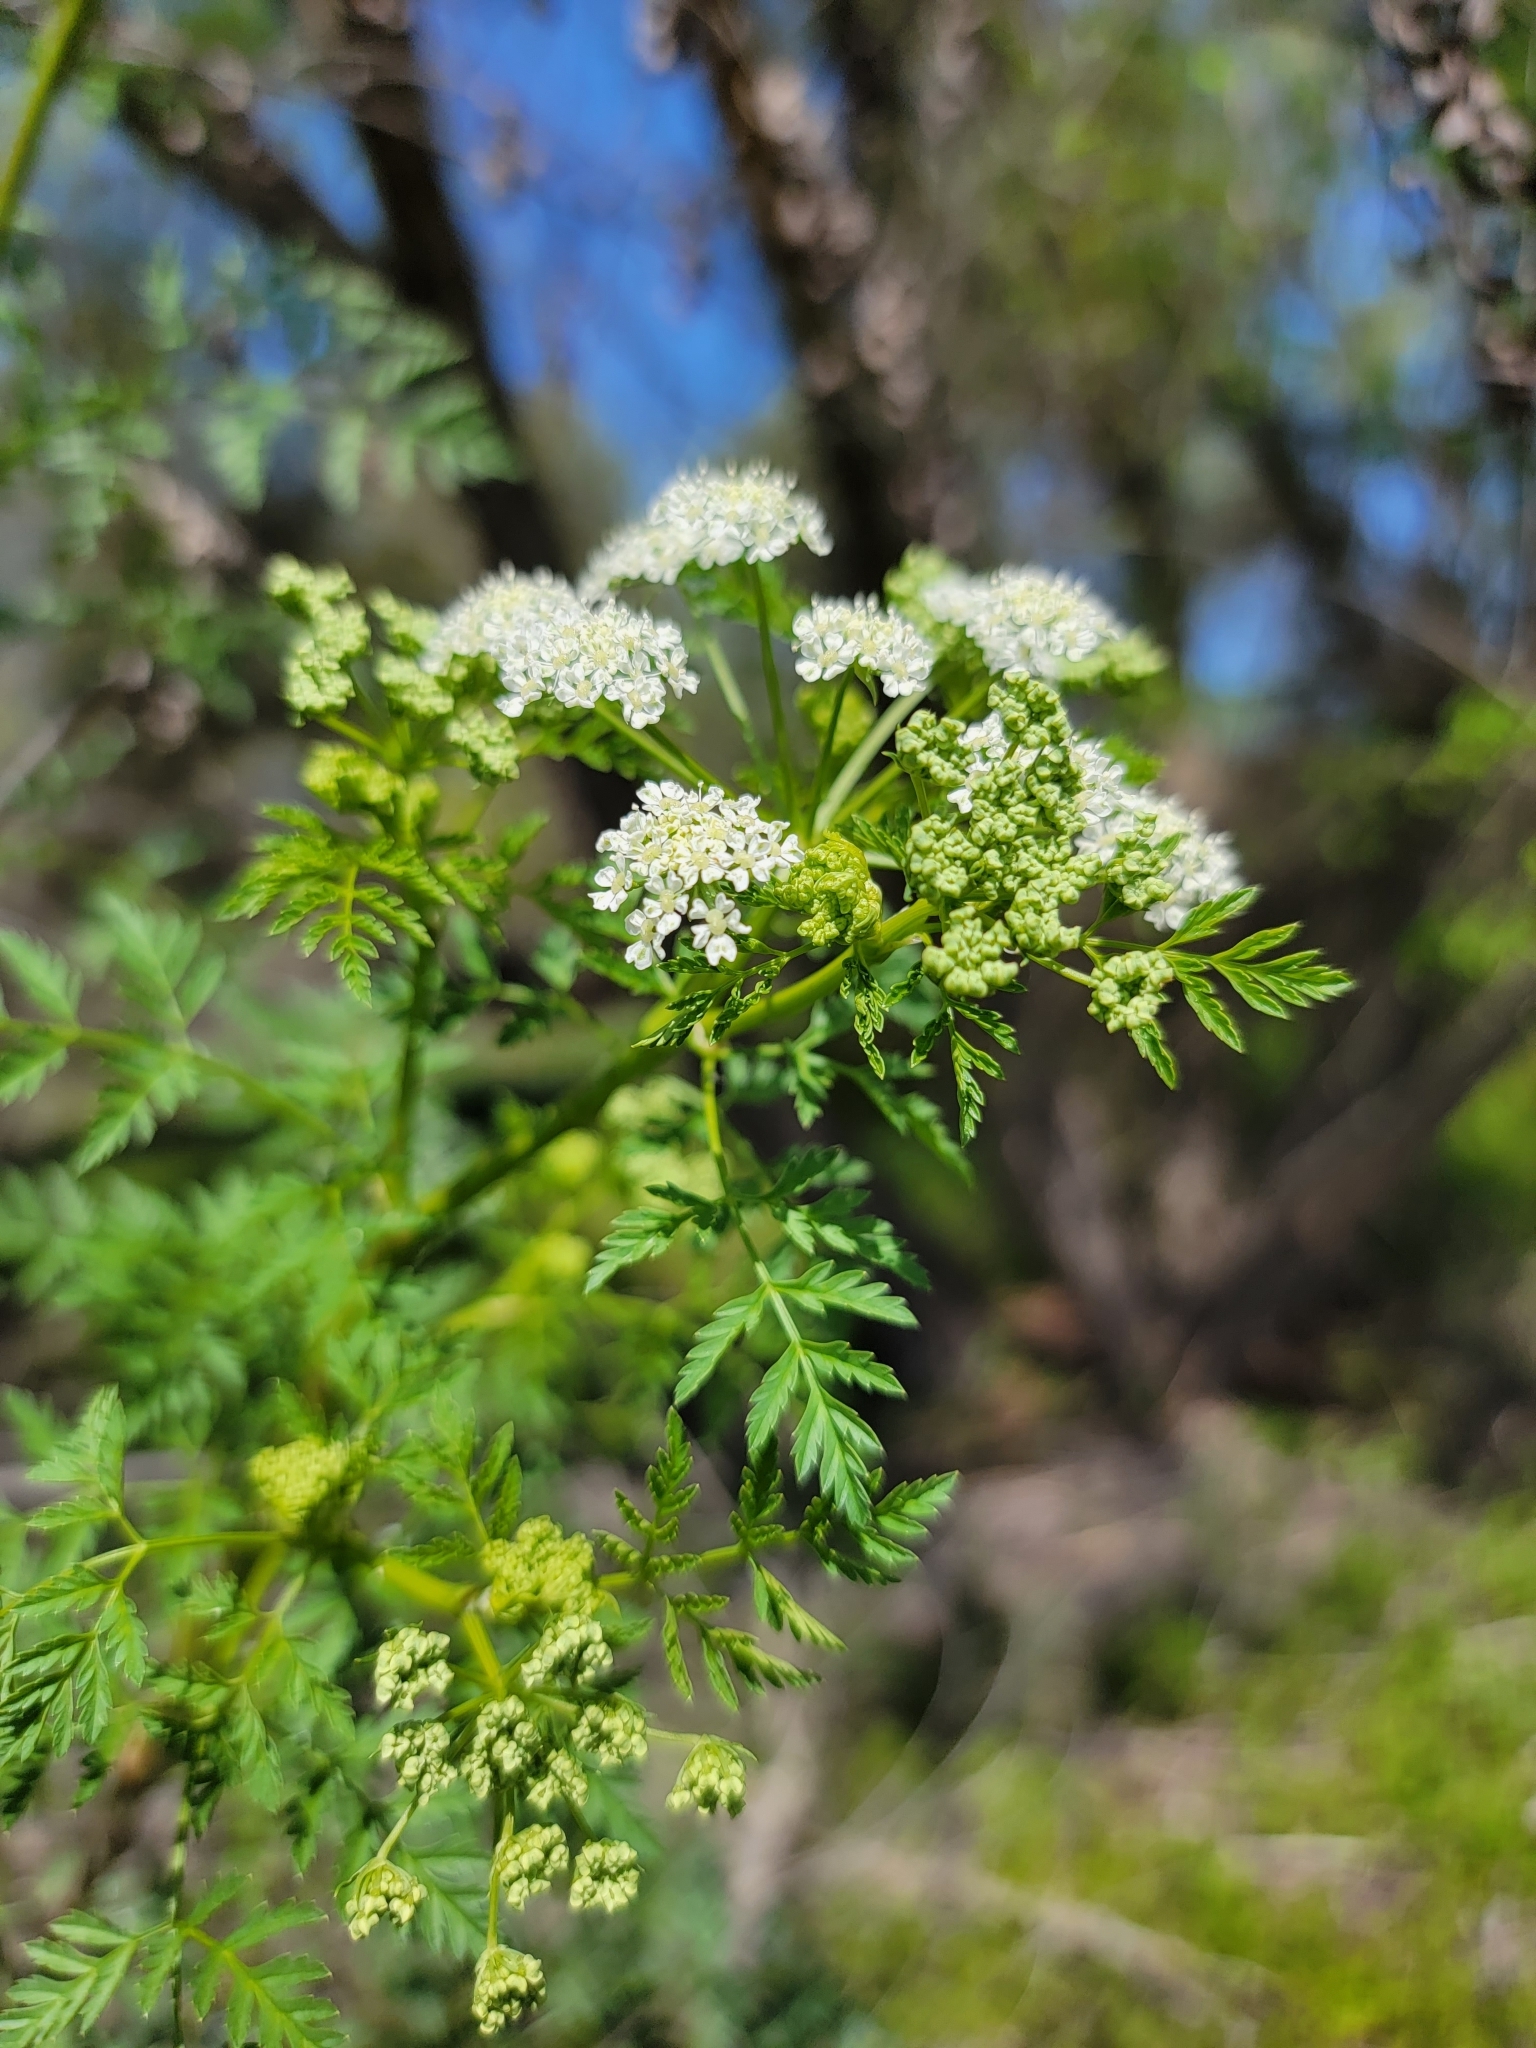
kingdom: Plantae
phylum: Tracheophyta
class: Magnoliopsida
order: Apiales
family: Apiaceae
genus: Conium
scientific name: Conium maculatum
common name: Hemlock
